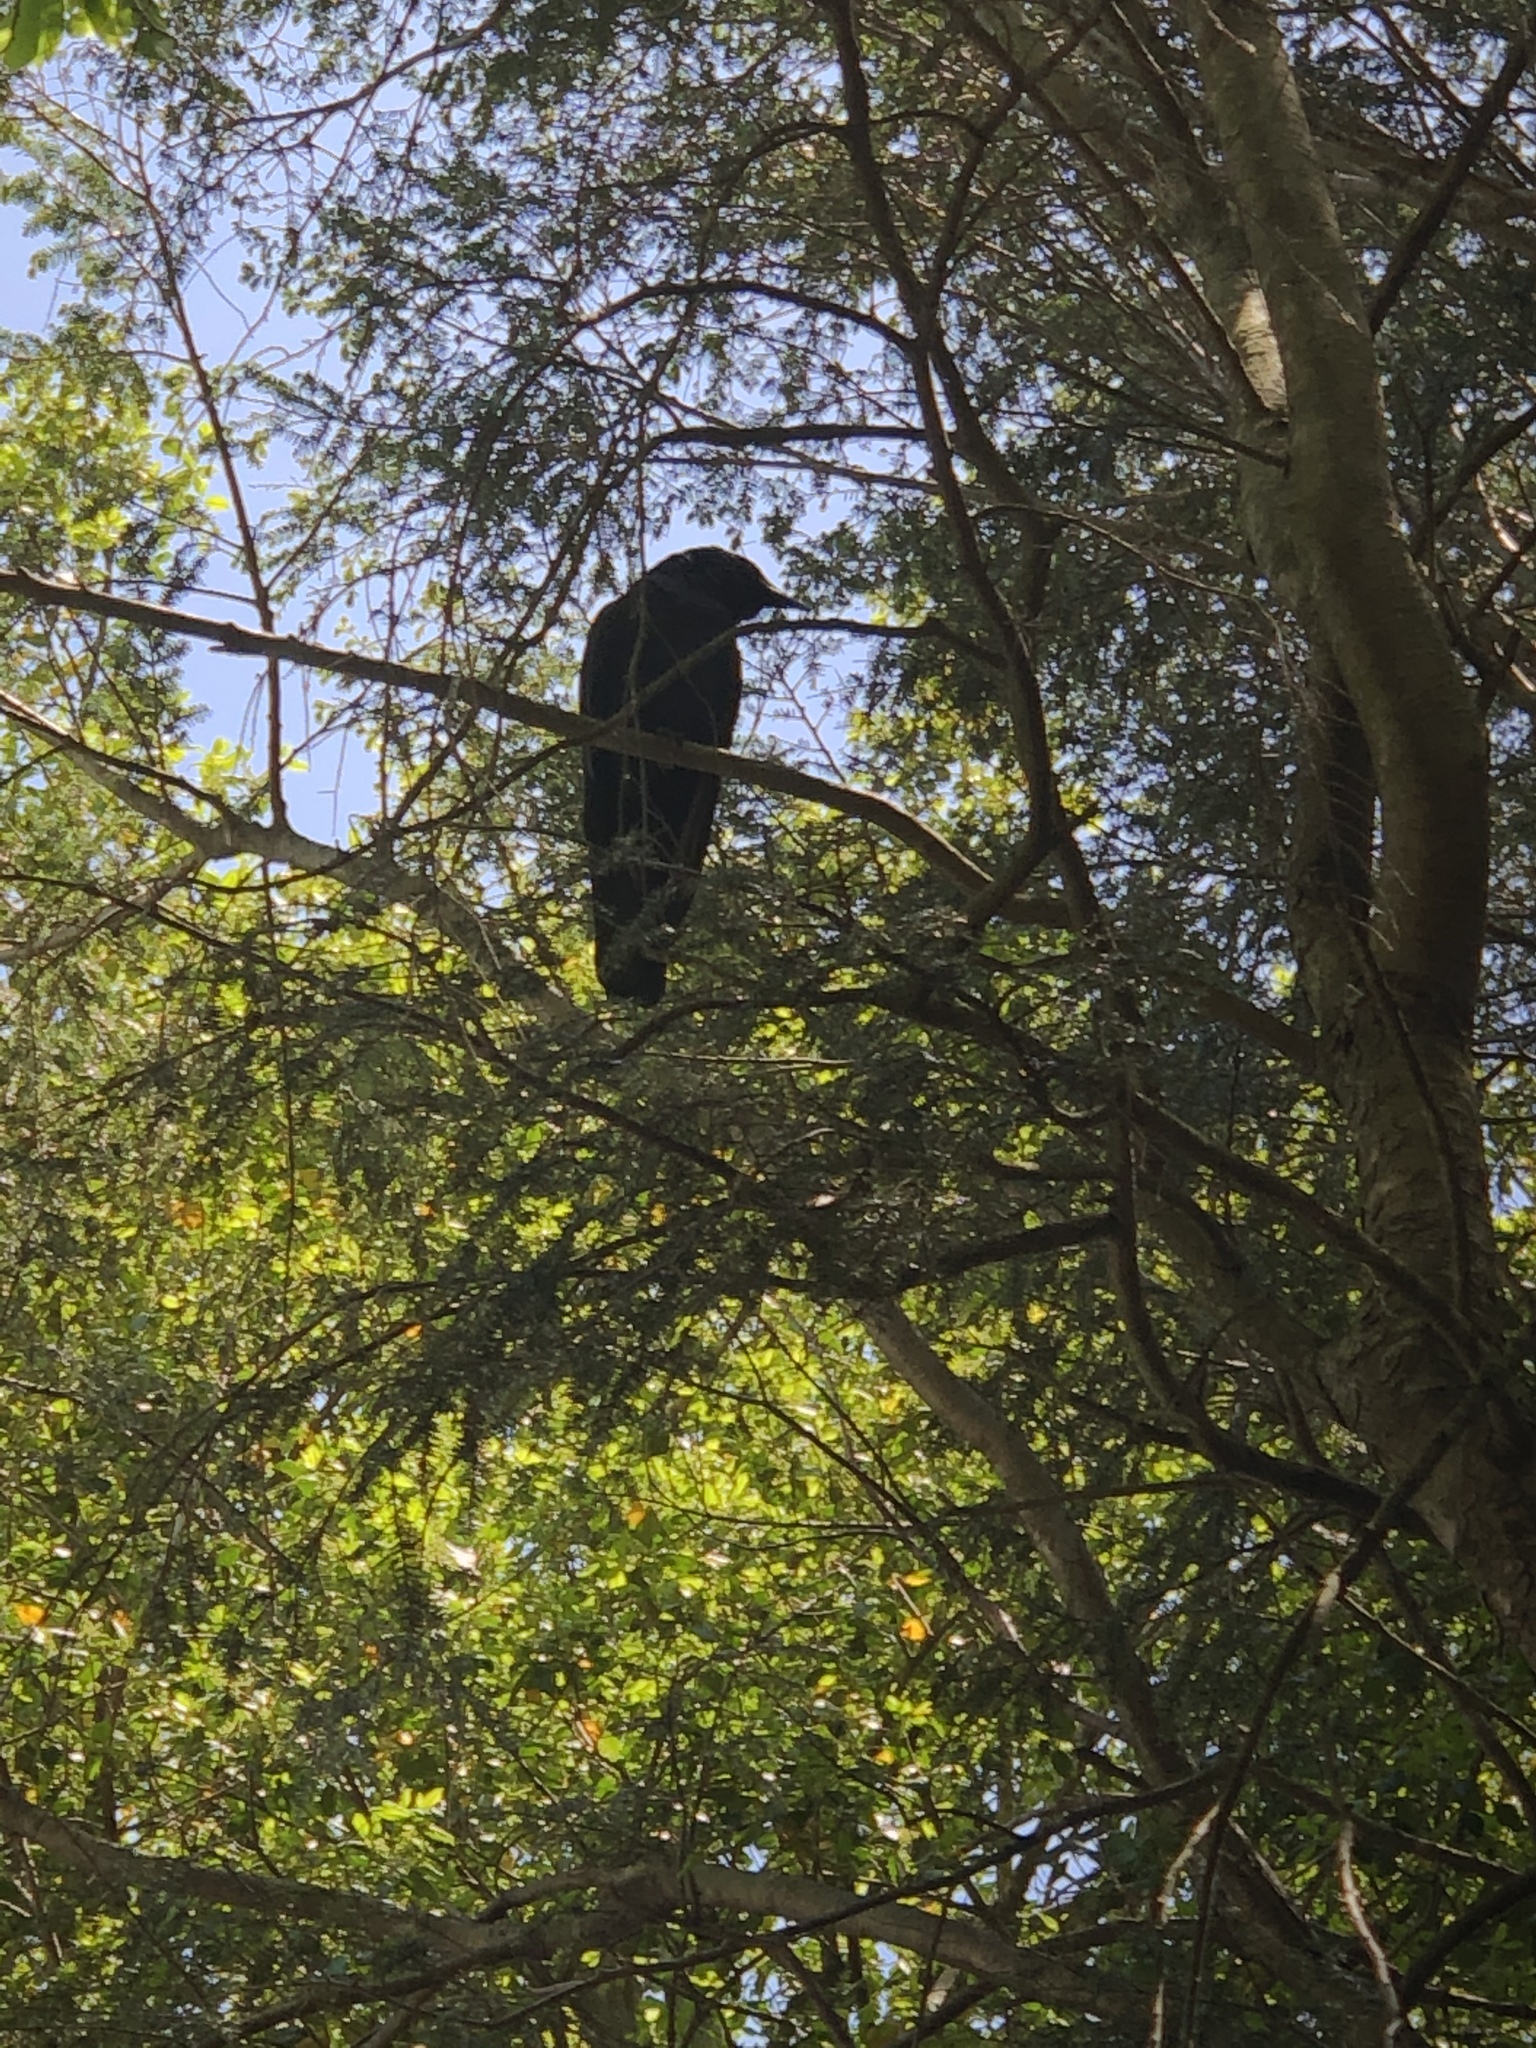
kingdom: Animalia
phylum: Chordata
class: Aves
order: Passeriformes
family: Corvidae
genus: Corvus
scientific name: Corvus
